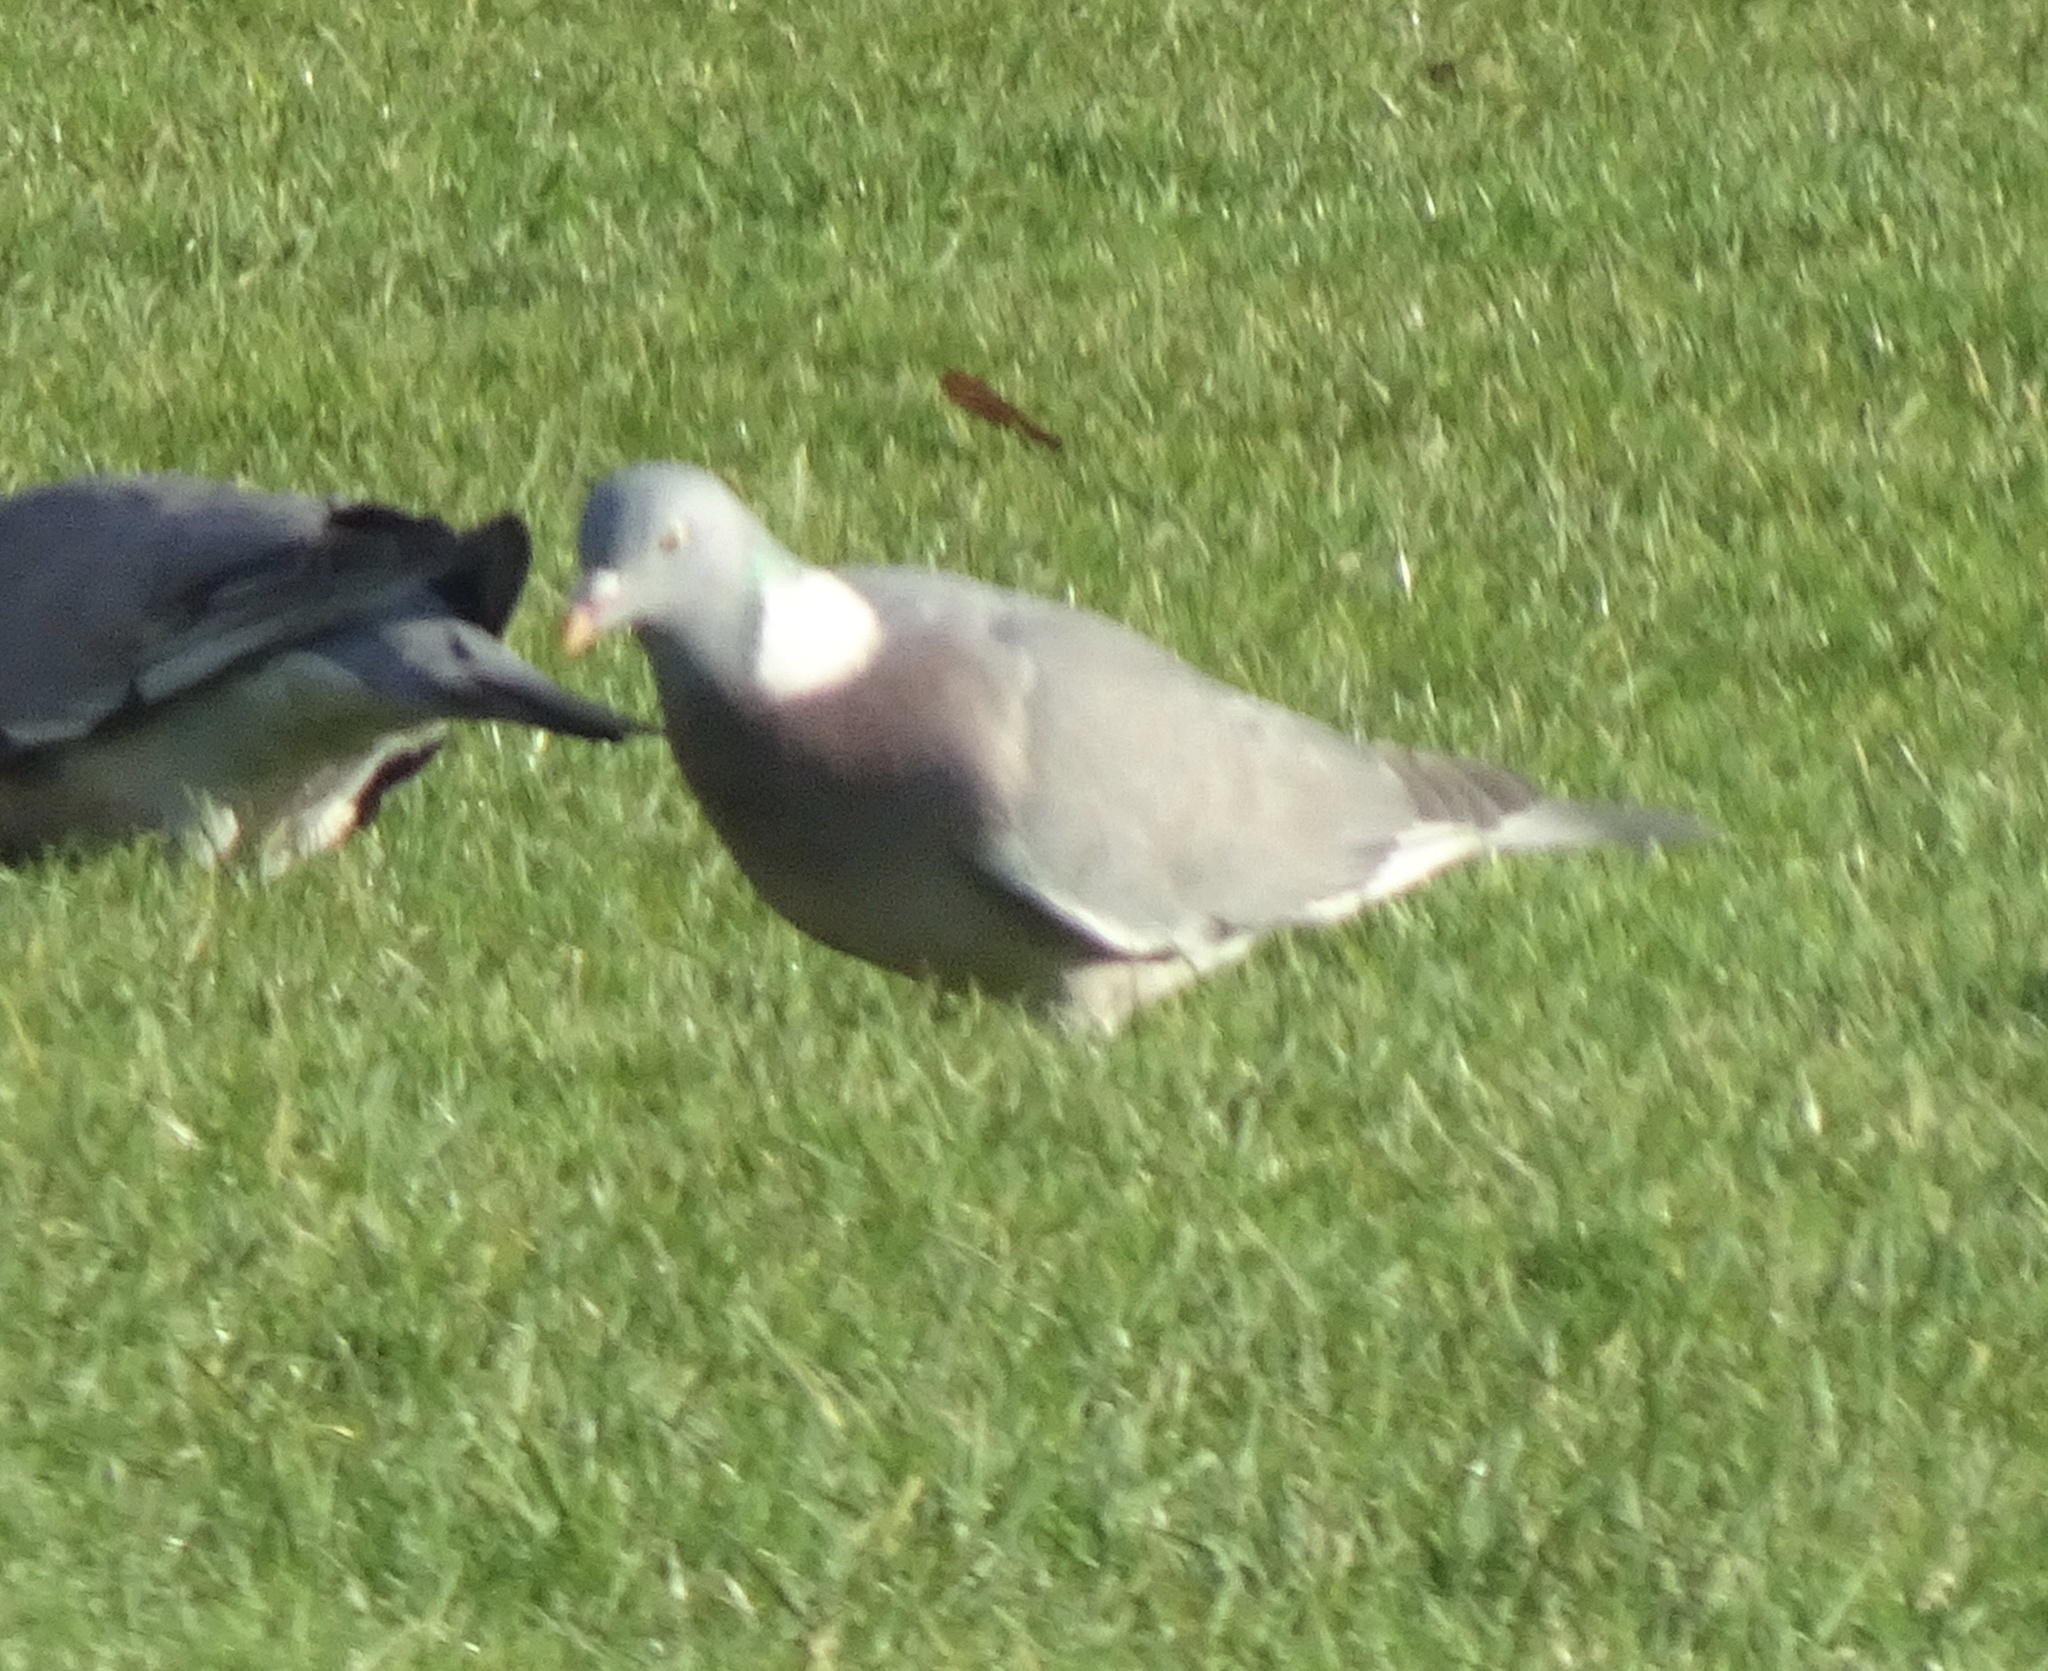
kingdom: Animalia
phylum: Chordata
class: Aves
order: Columbiformes
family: Columbidae
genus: Columba
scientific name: Columba palumbus
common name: Common wood pigeon
